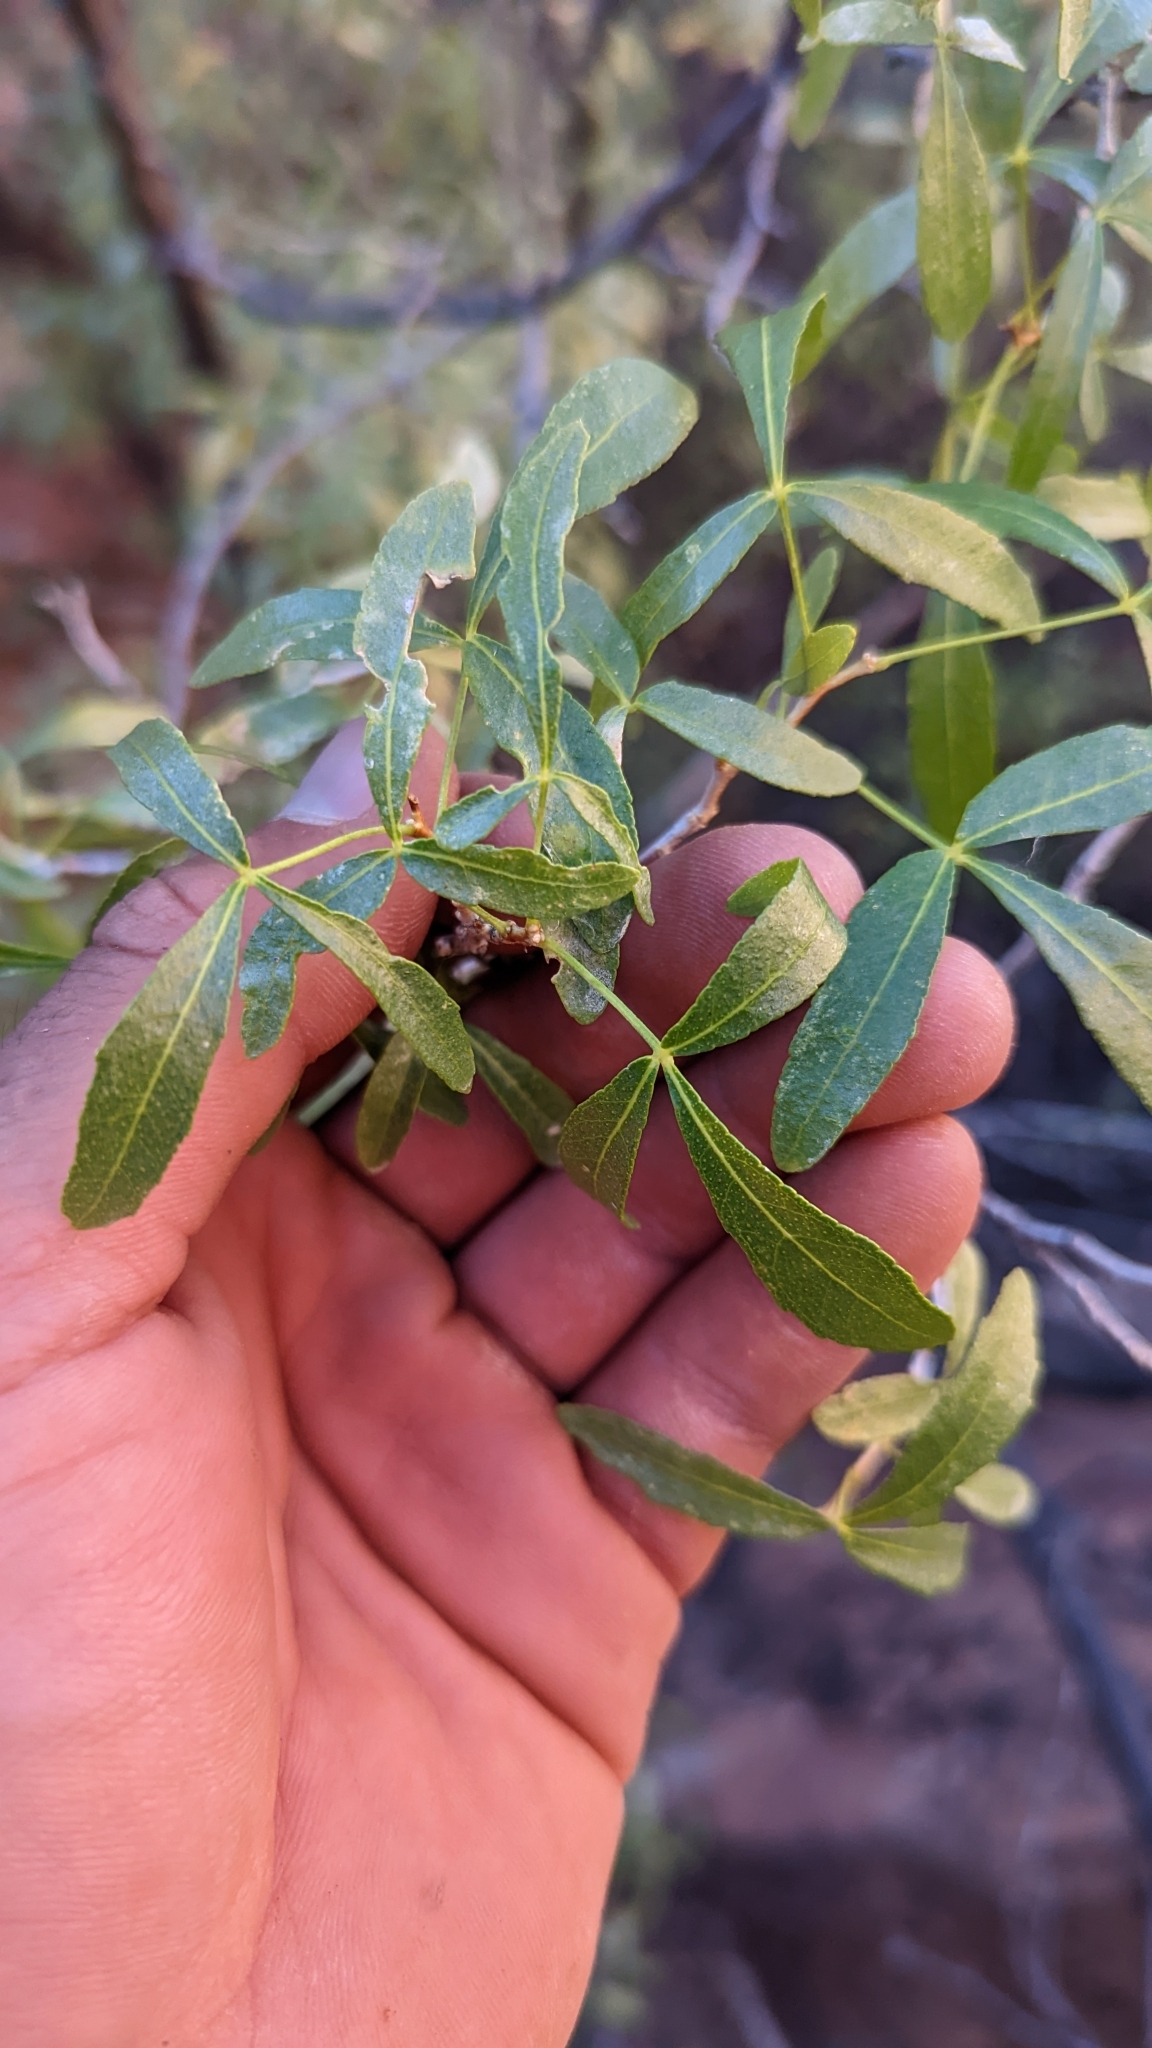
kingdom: Plantae
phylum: Tracheophyta
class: Magnoliopsida
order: Sapindales
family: Rutaceae
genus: Ptelea
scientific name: Ptelea trifoliata
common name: Common hop-tree
